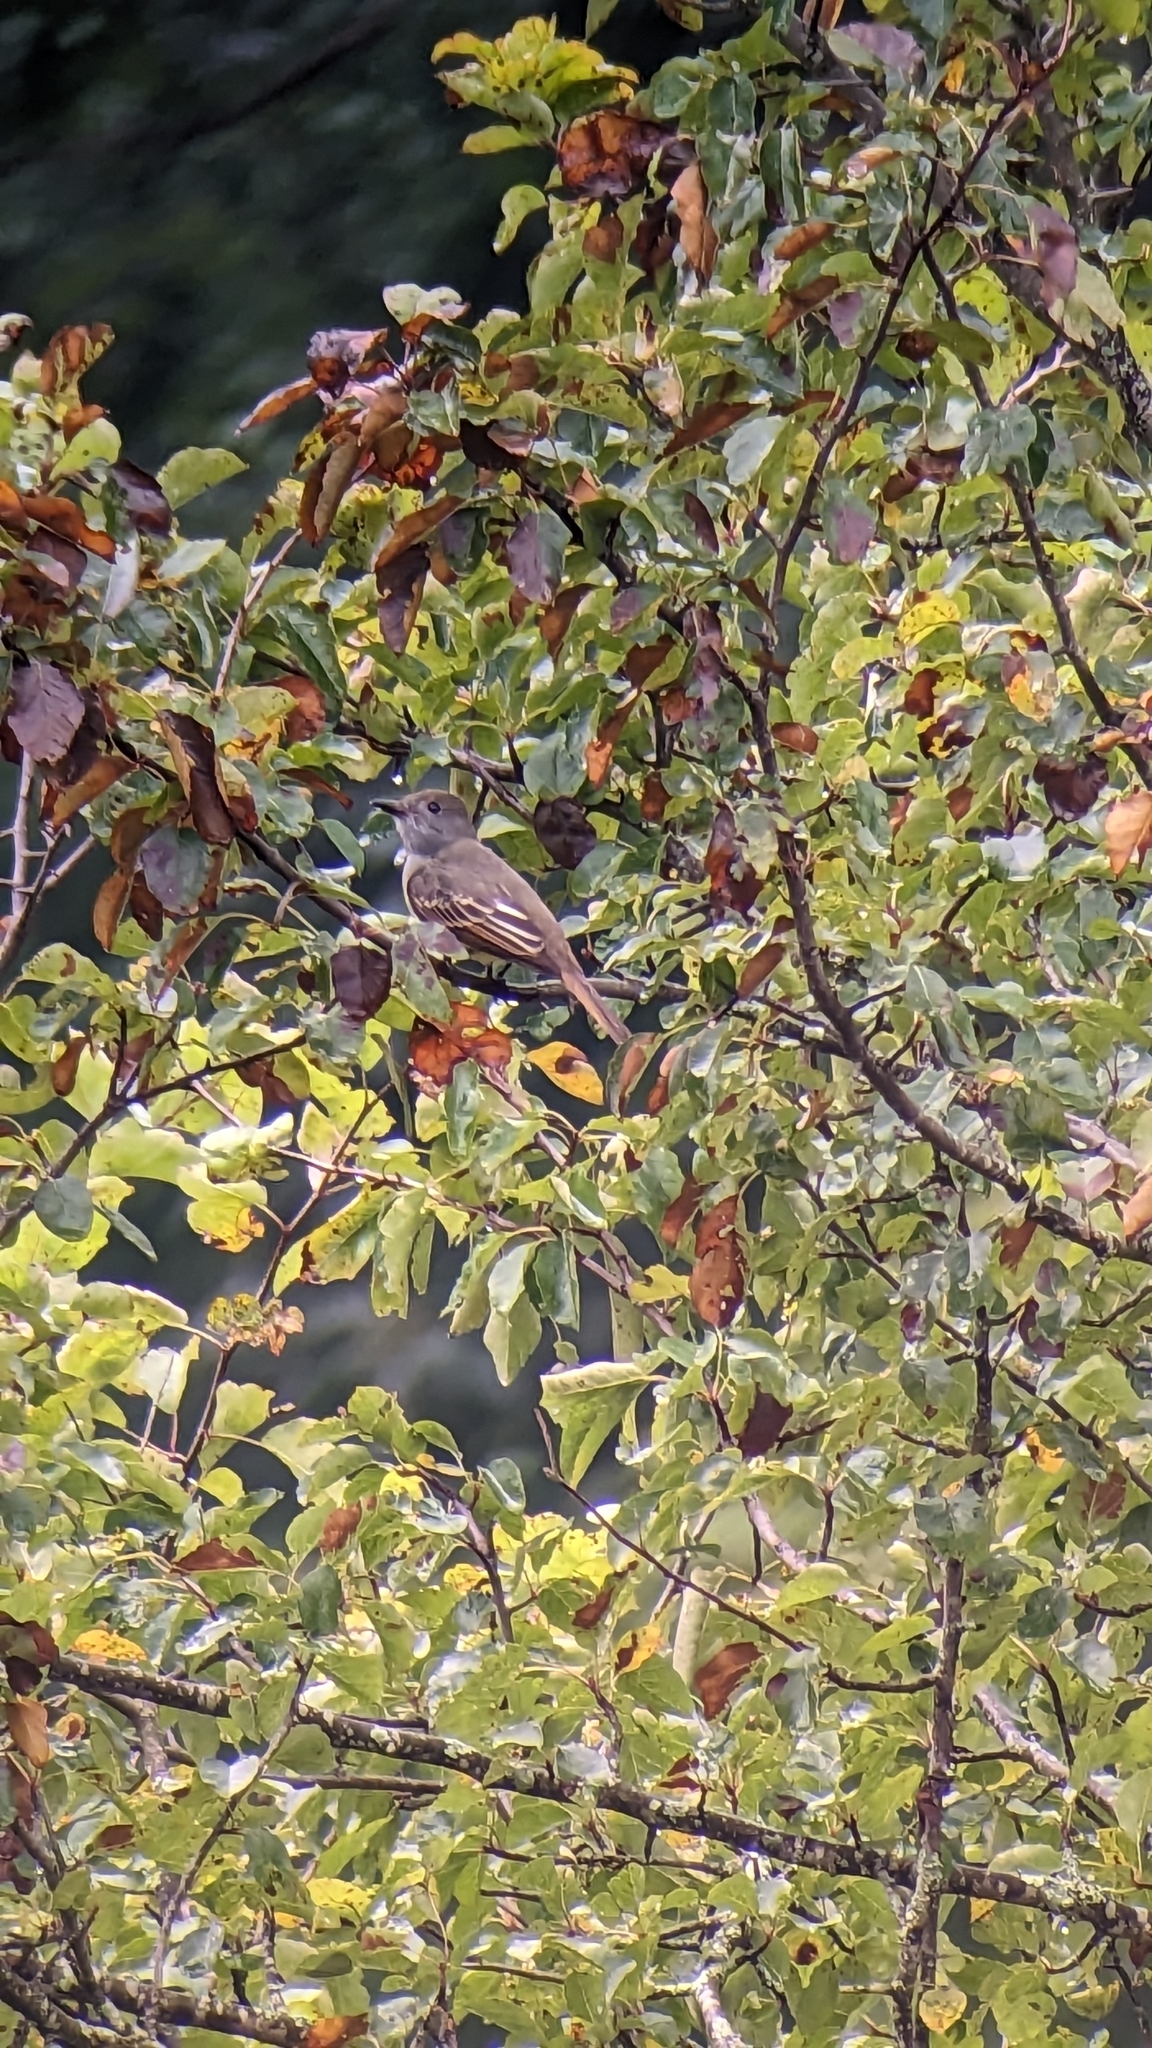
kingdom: Animalia
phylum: Chordata
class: Aves
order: Passeriformes
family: Tyrannidae
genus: Myiarchus
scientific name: Myiarchus crinitus
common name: Great crested flycatcher
